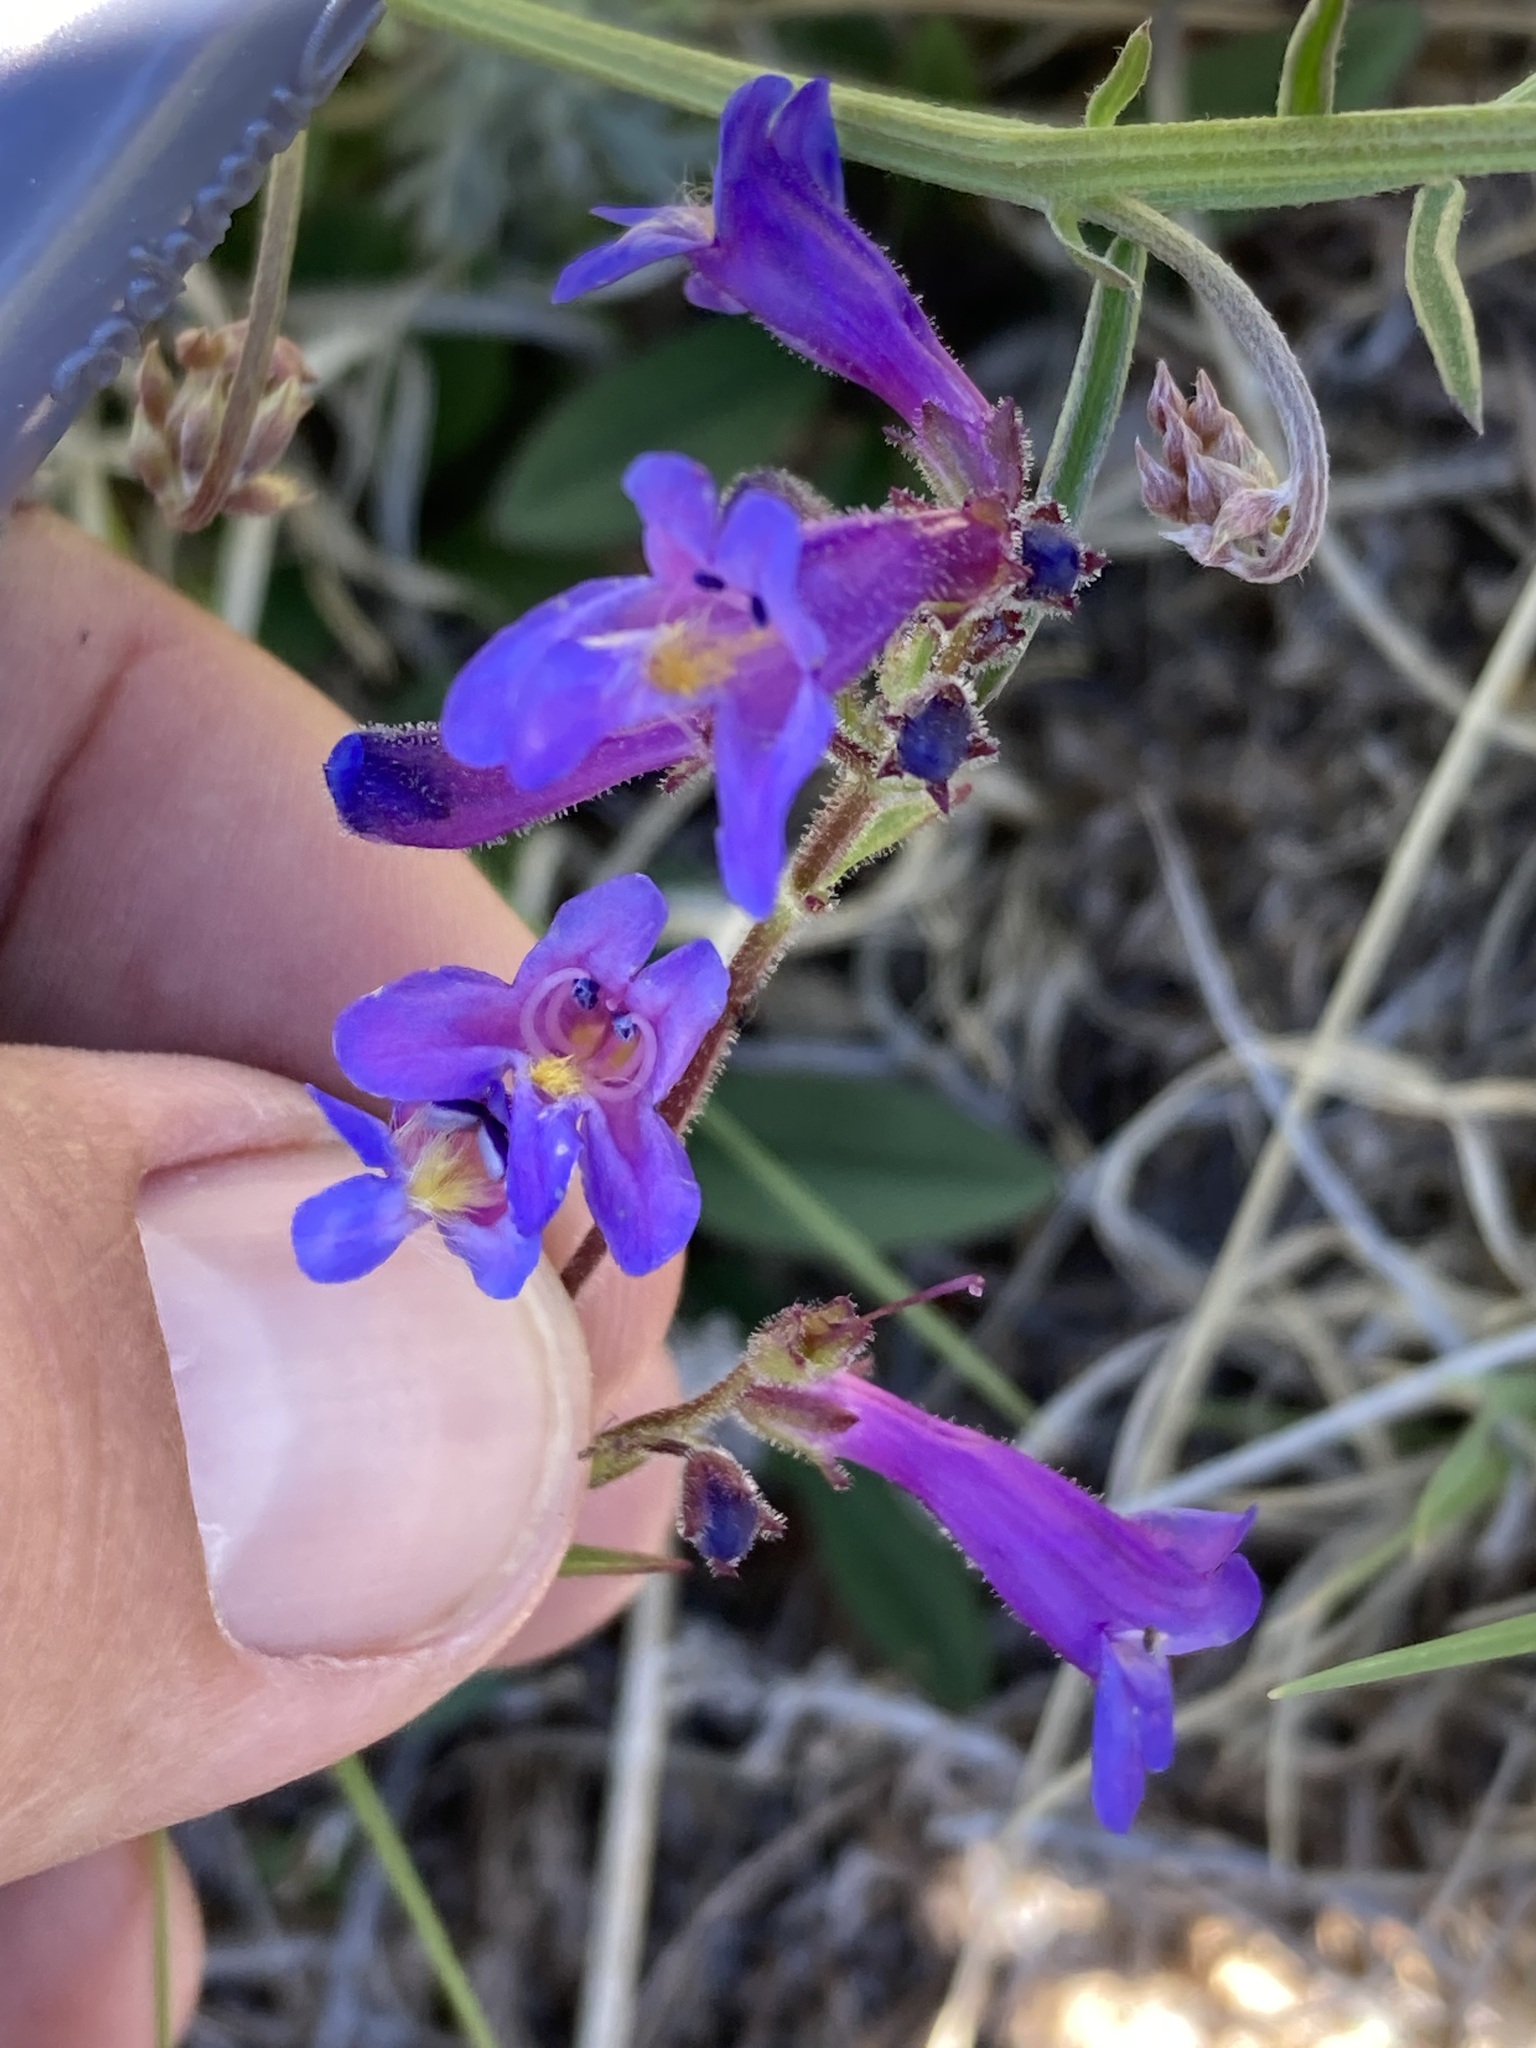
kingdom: Plantae
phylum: Tracheophyta
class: Magnoliopsida
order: Lamiales
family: Plantaginaceae
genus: Penstemon
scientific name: Penstemon pseudoparvus
